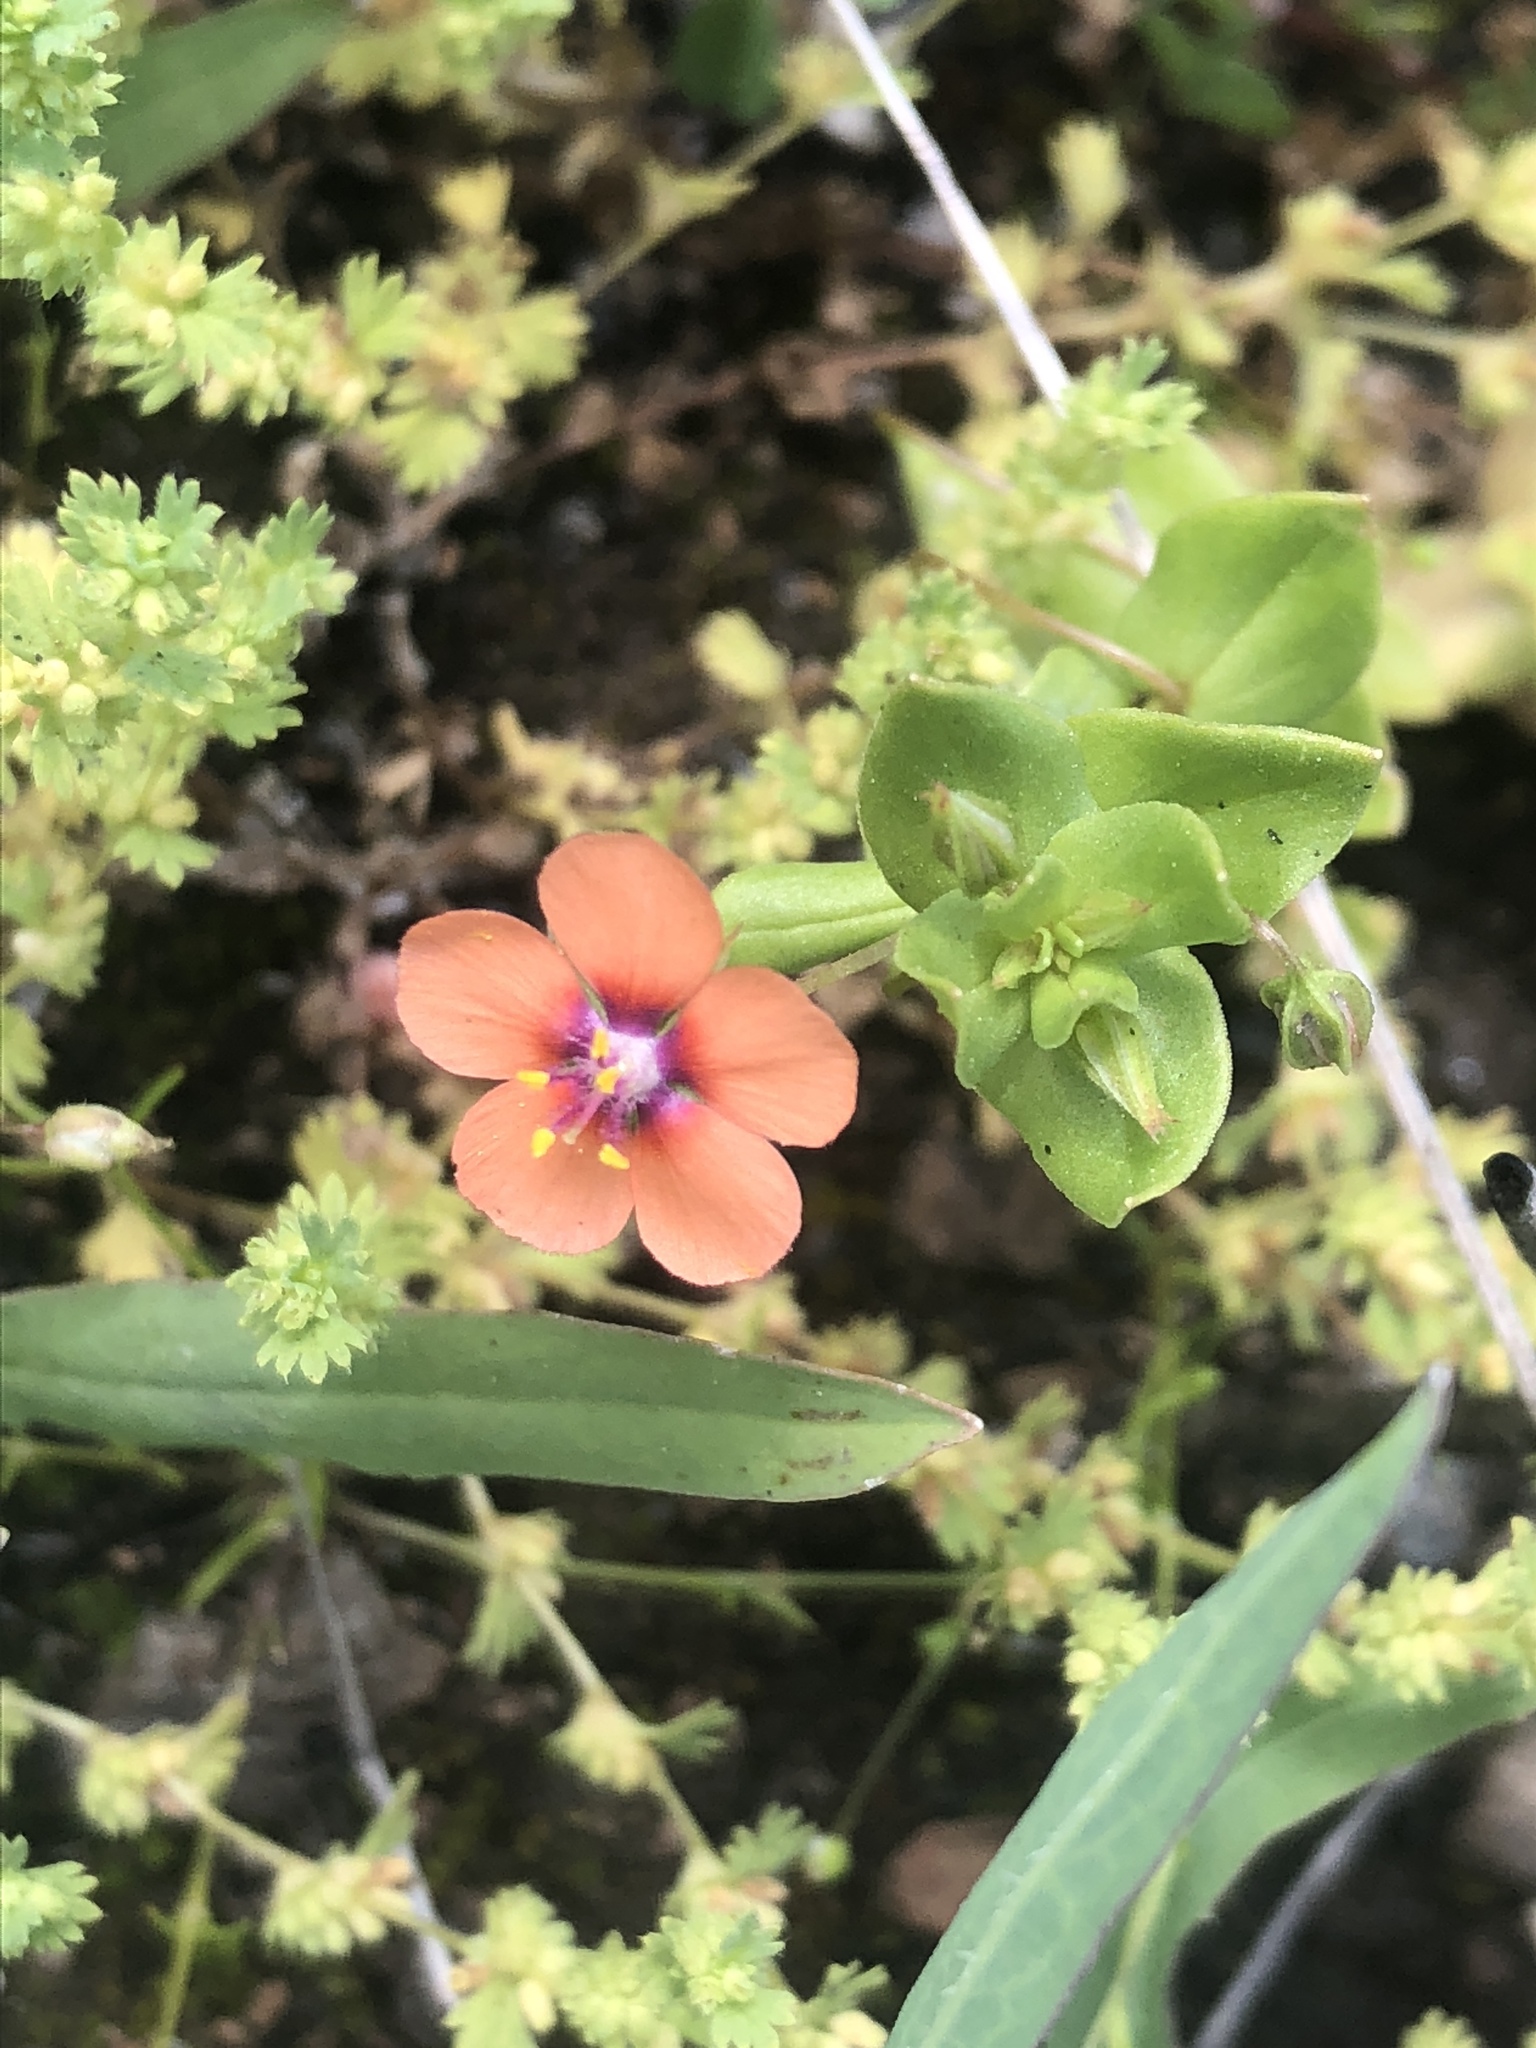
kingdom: Plantae
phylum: Tracheophyta
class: Magnoliopsida
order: Ericales
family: Primulaceae
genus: Lysimachia
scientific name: Lysimachia arvensis
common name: Scarlet pimpernel
